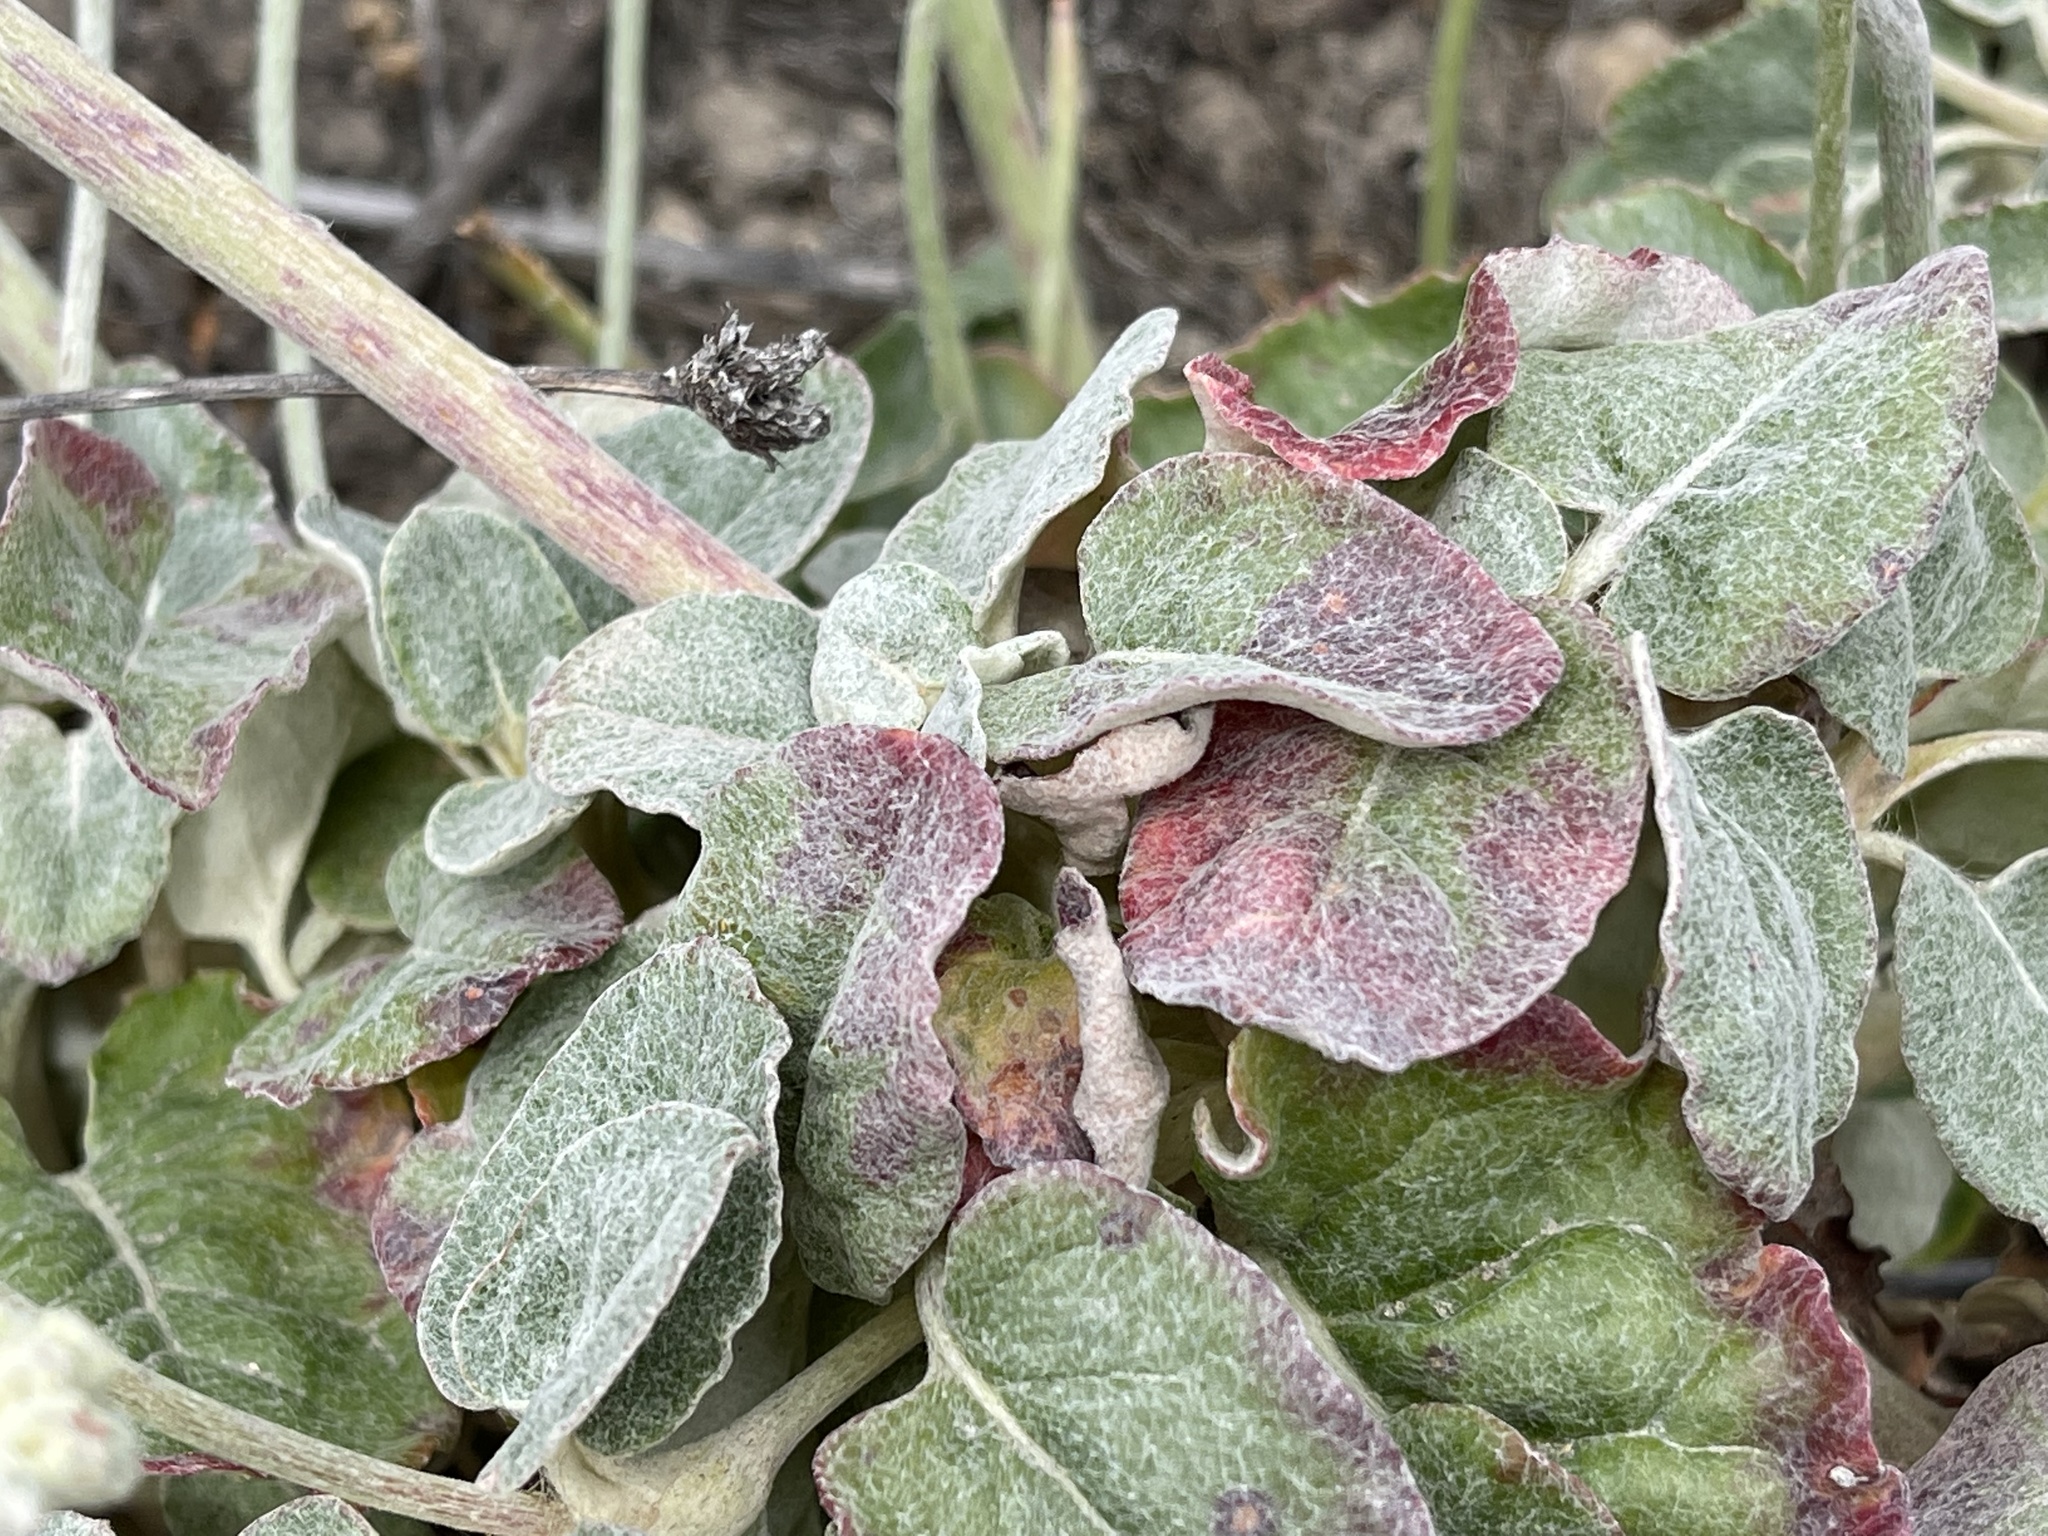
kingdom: Plantae
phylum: Tracheophyta
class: Magnoliopsida
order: Caryophyllales
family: Polygonaceae
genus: Eriogonum
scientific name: Eriogonum latifolium
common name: Seaside wild buckwheat
